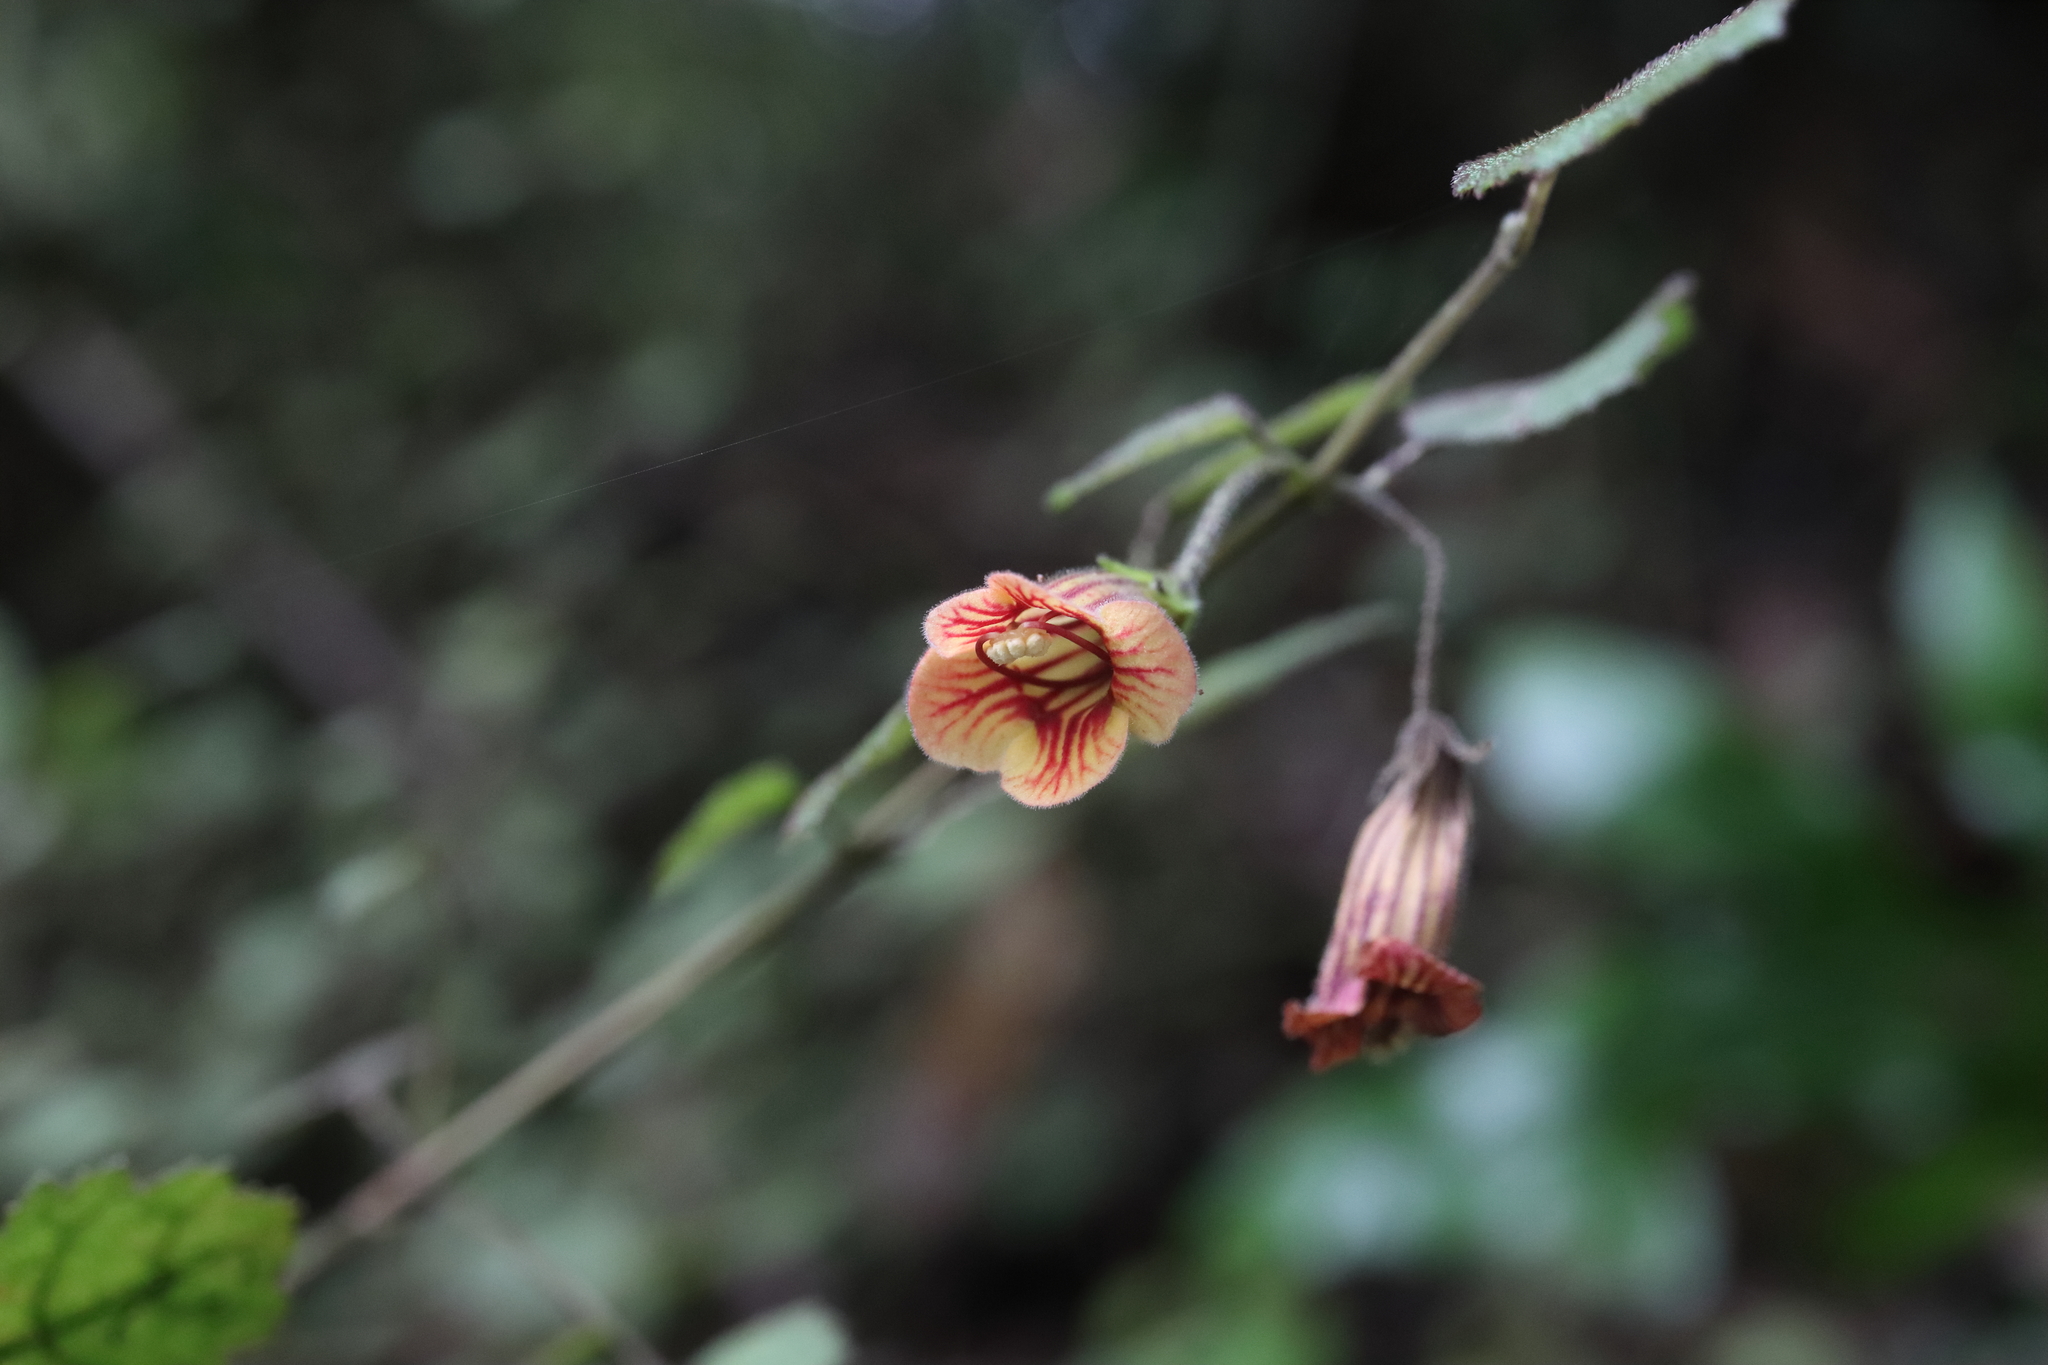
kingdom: Plantae
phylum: Tracheophyta
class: Magnoliopsida
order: Lamiales
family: Gesneriaceae
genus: Rhabdothamnus
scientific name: Rhabdothamnus solandri
